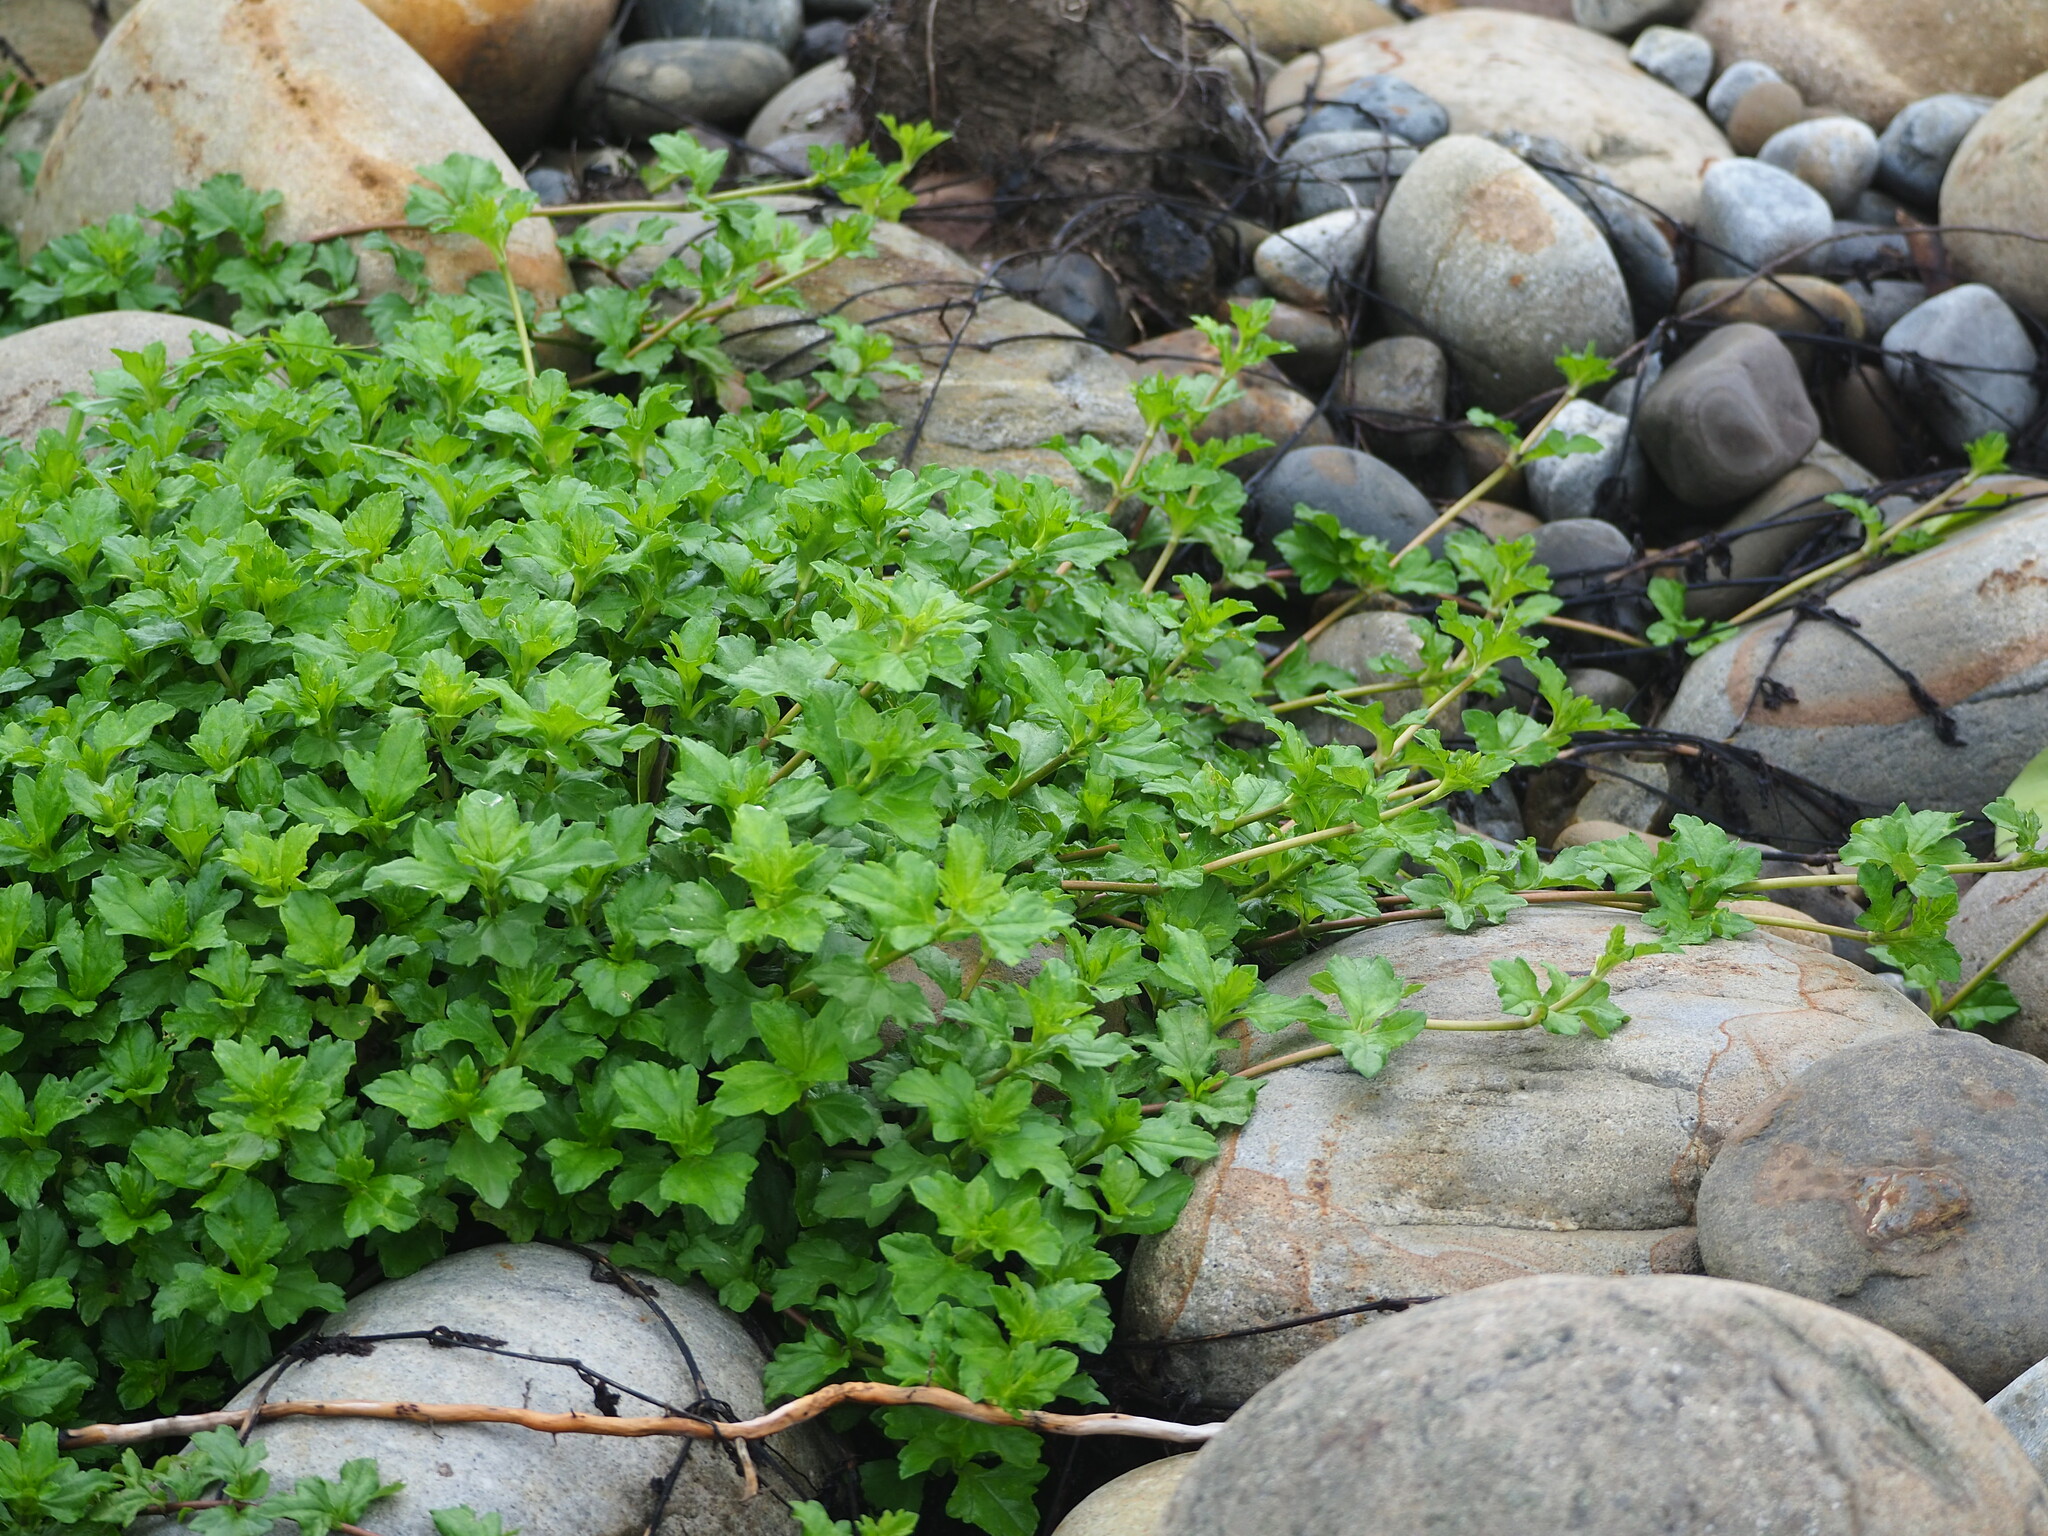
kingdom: Plantae
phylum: Tracheophyta
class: Magnoliopsida
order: Asterales
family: Asteraceae
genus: Sphagneticola
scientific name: Sphagneticola trilobata
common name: Bay biscayne creeping-oxeye
